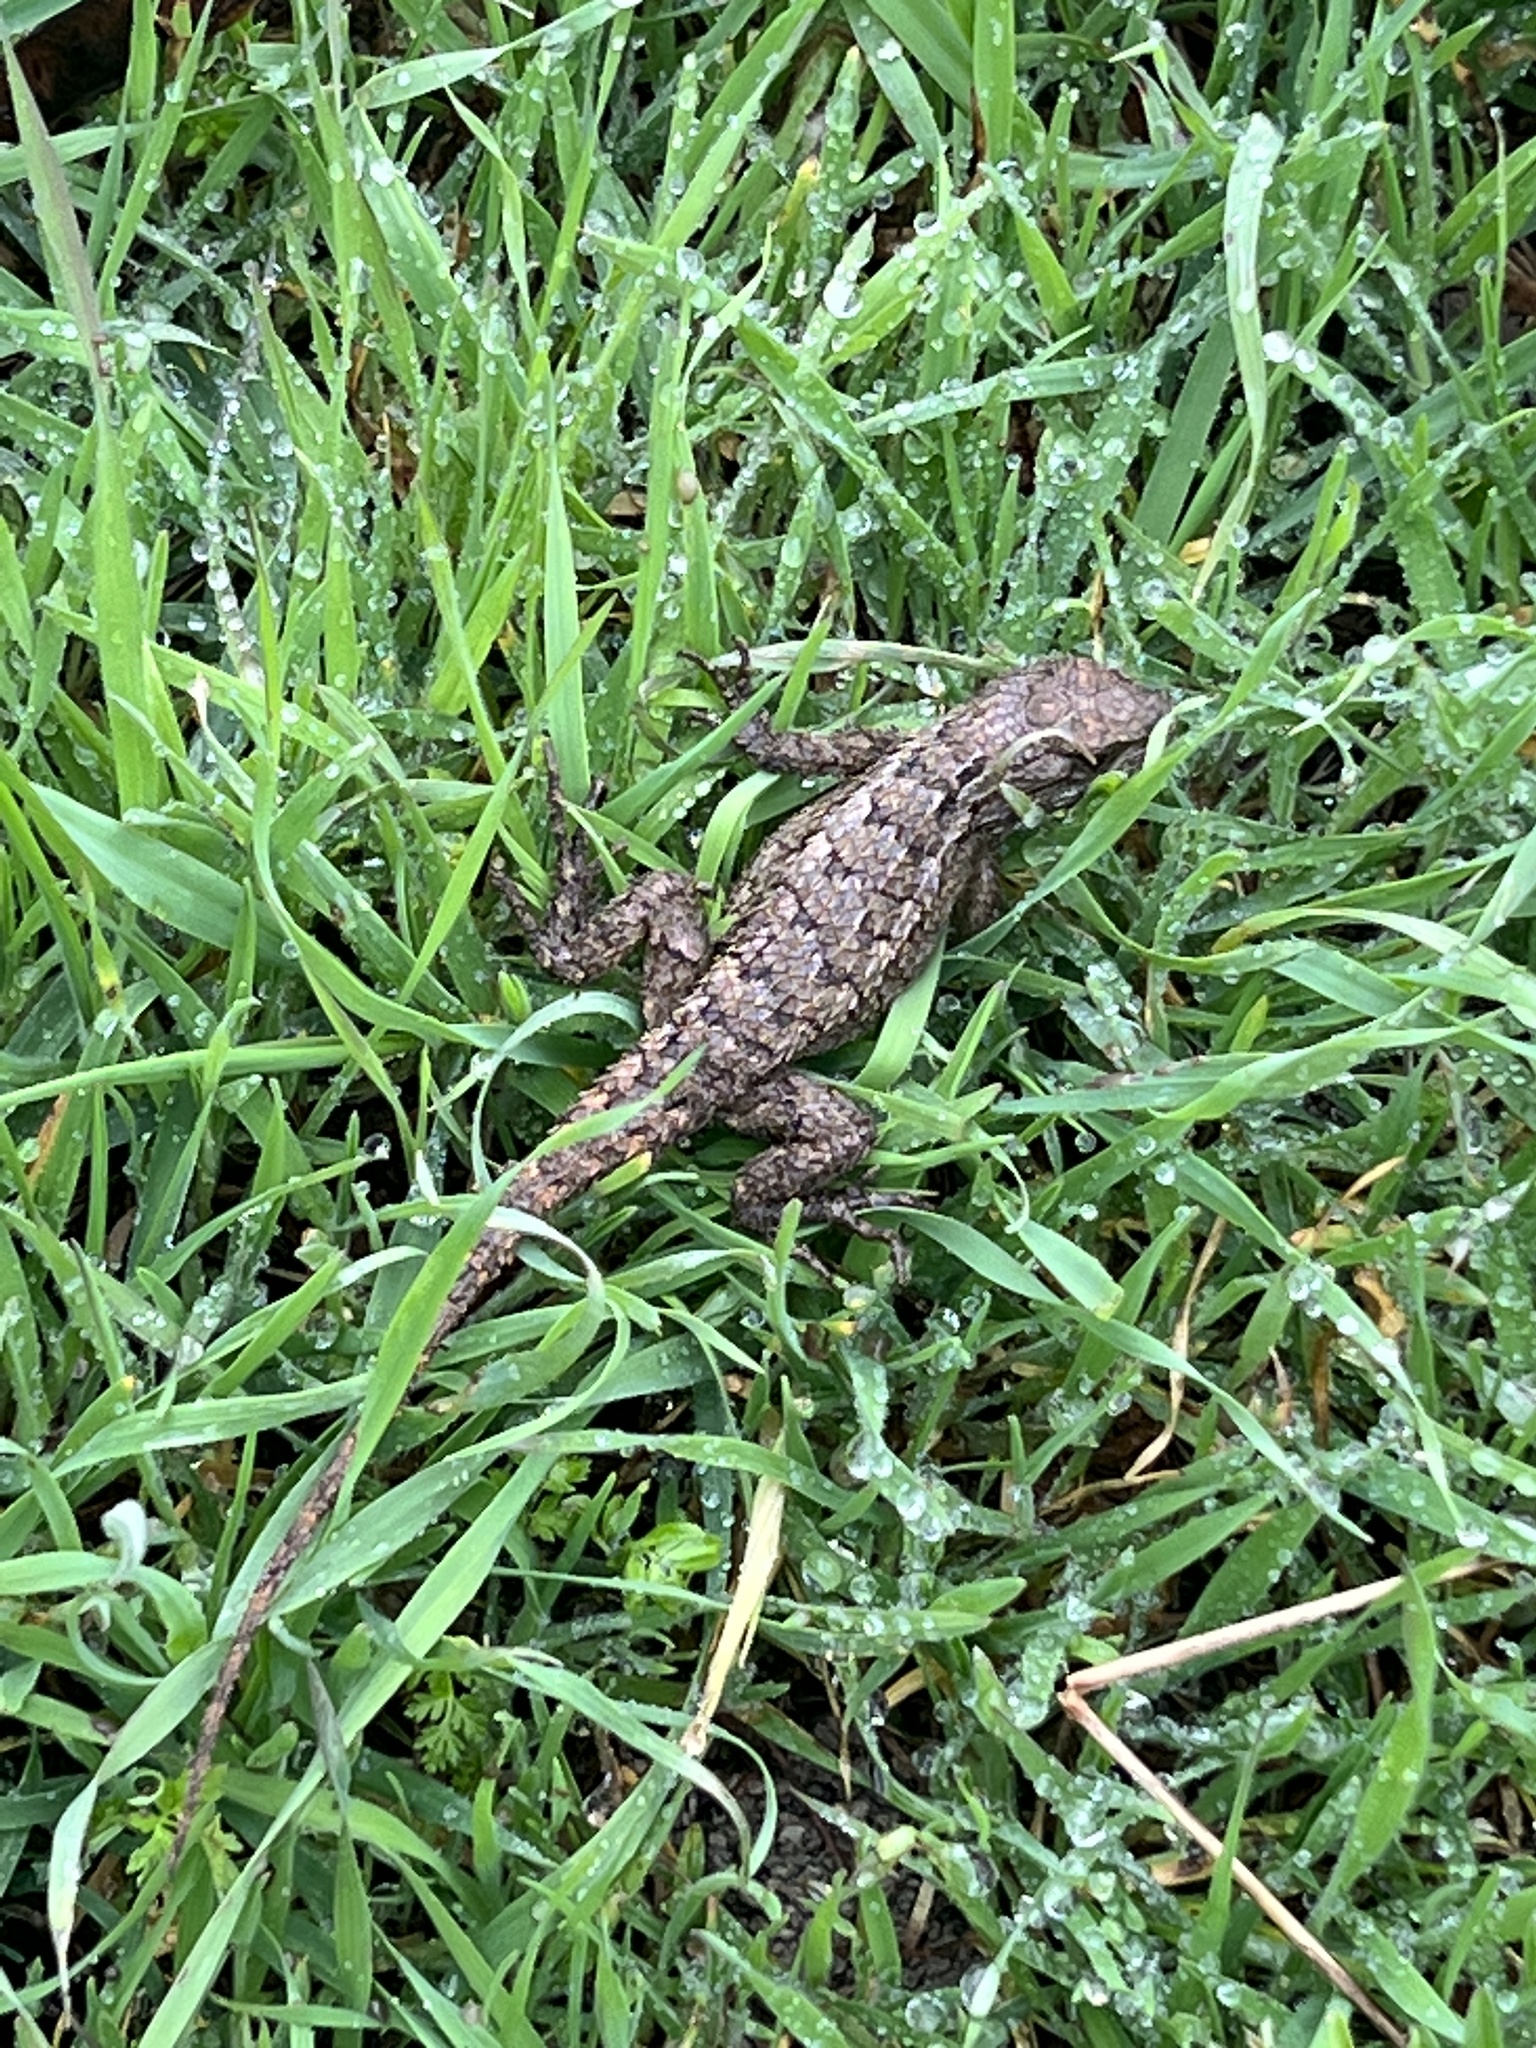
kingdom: Animalia
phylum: Chordata
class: Squamata
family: Phrynosomatidae
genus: Sceloporus
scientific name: Sceloporus olivaceus
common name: Texas spiny lizard
